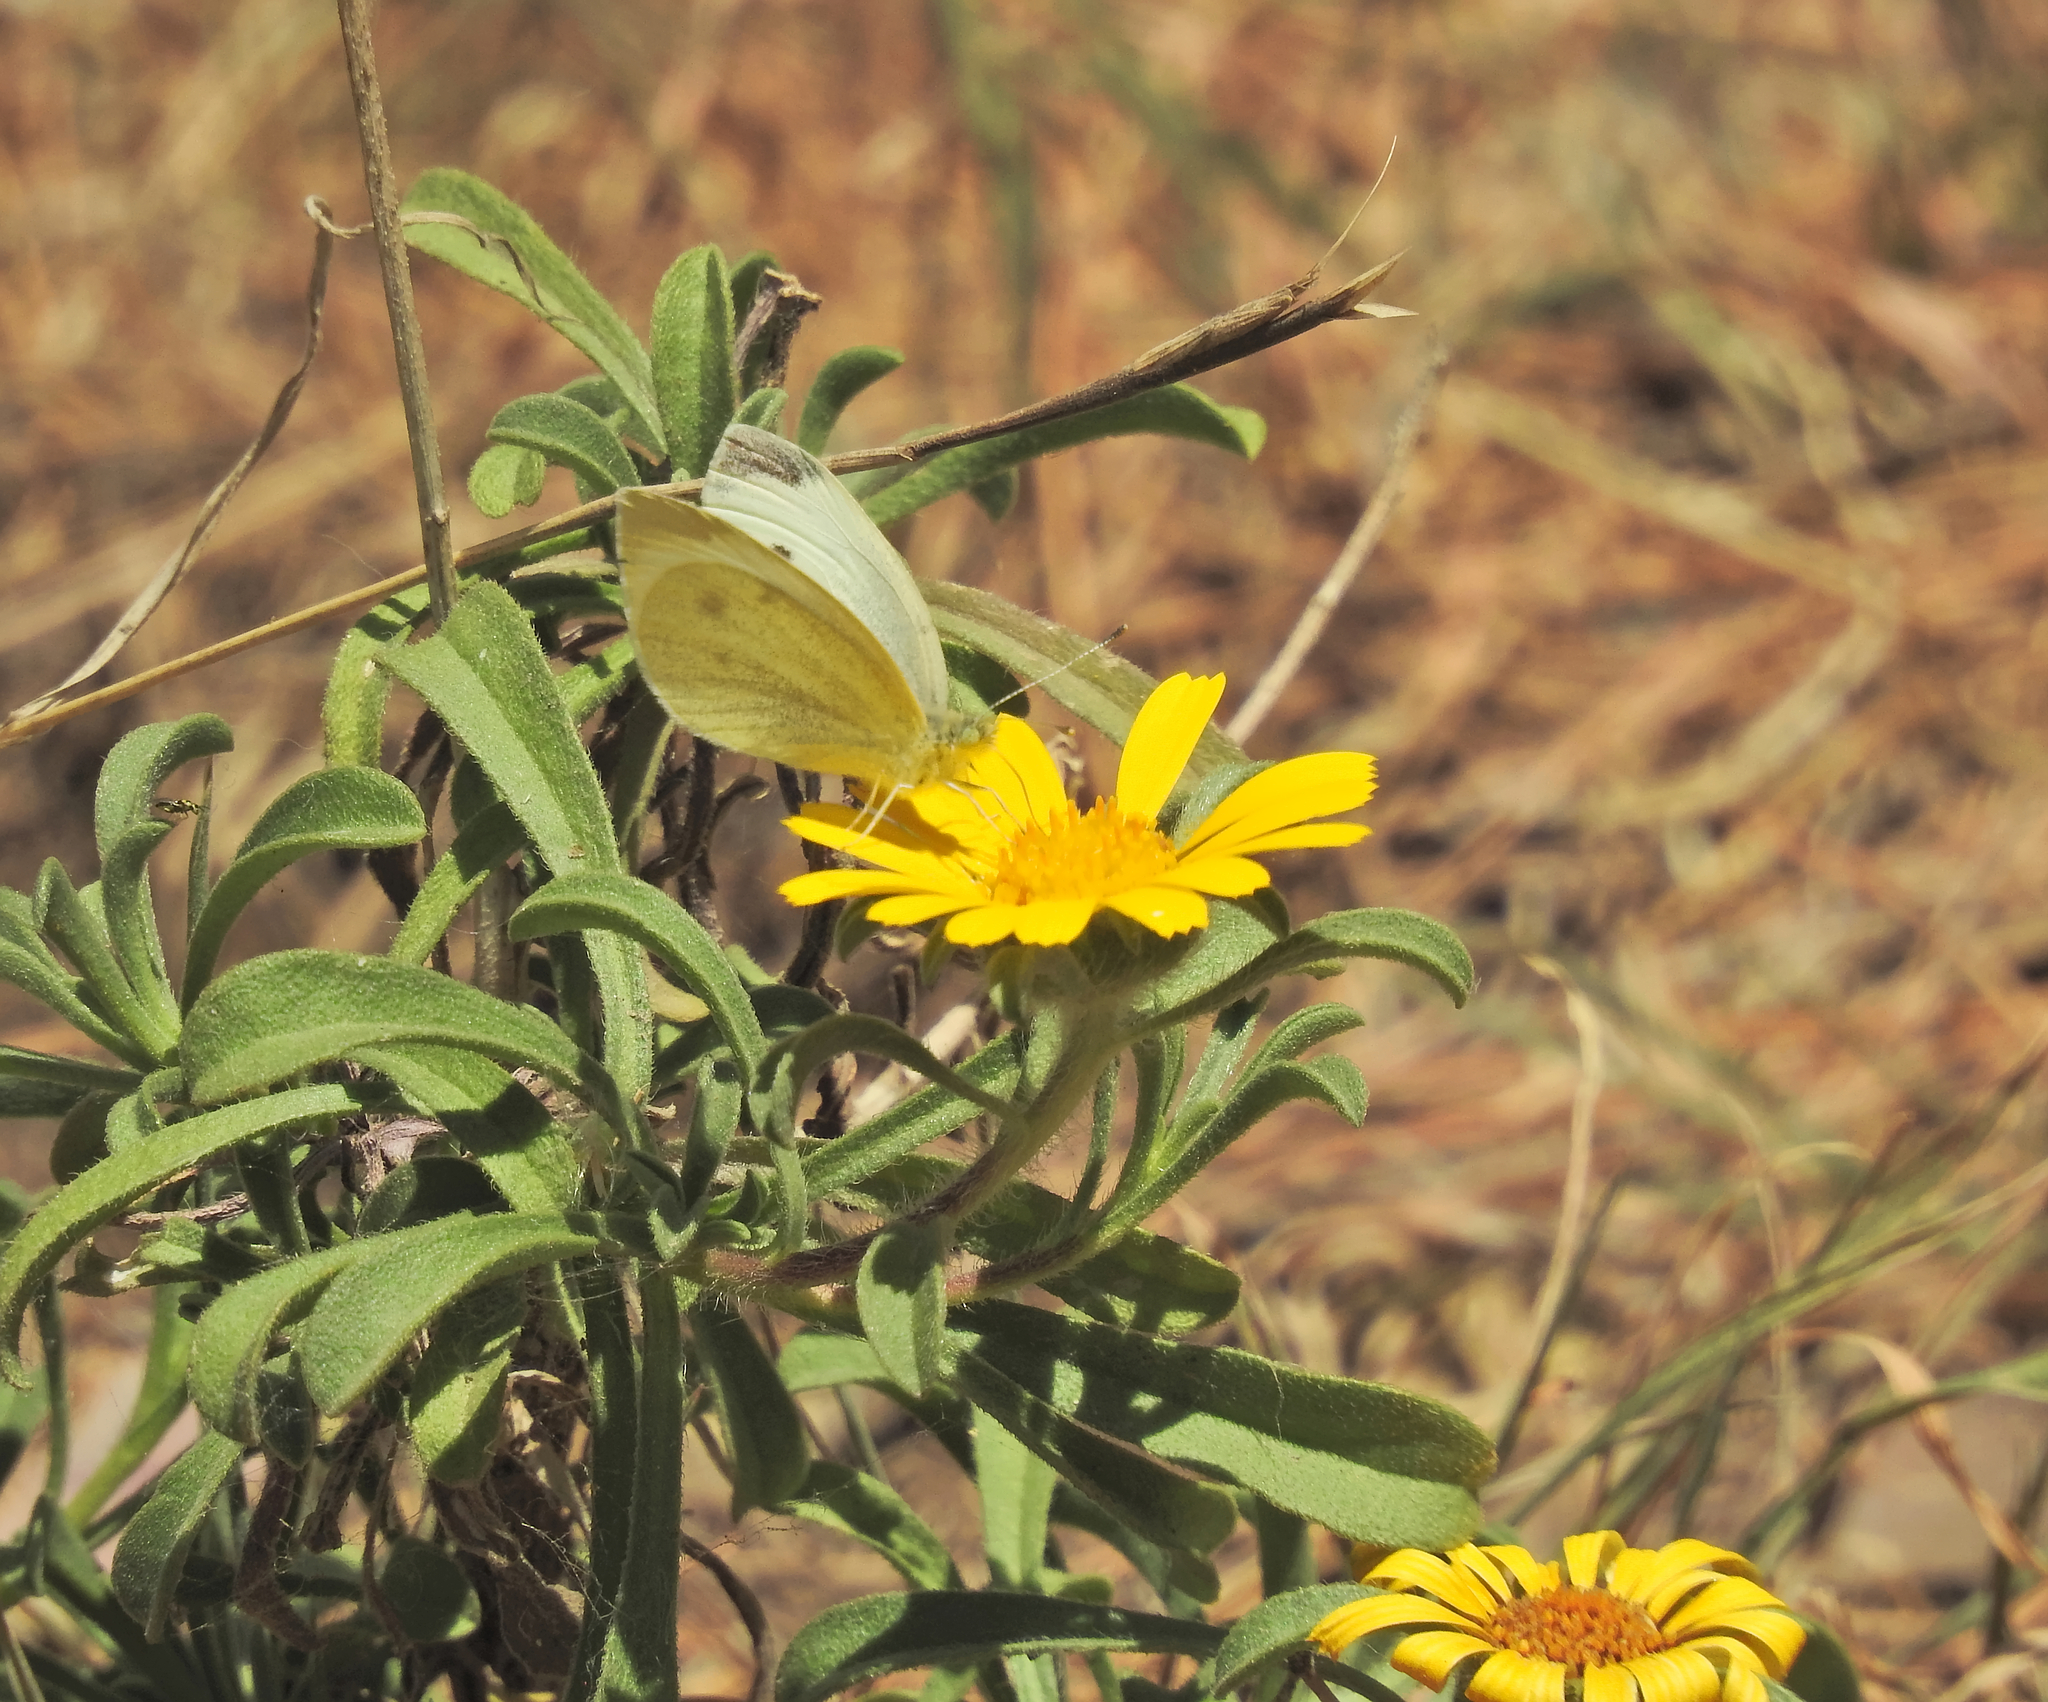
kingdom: Animalia
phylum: Arthropoda
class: Insecta
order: Lepidoptera
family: Pieridae
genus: Pieris
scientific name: Pieris rapae
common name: Small white
